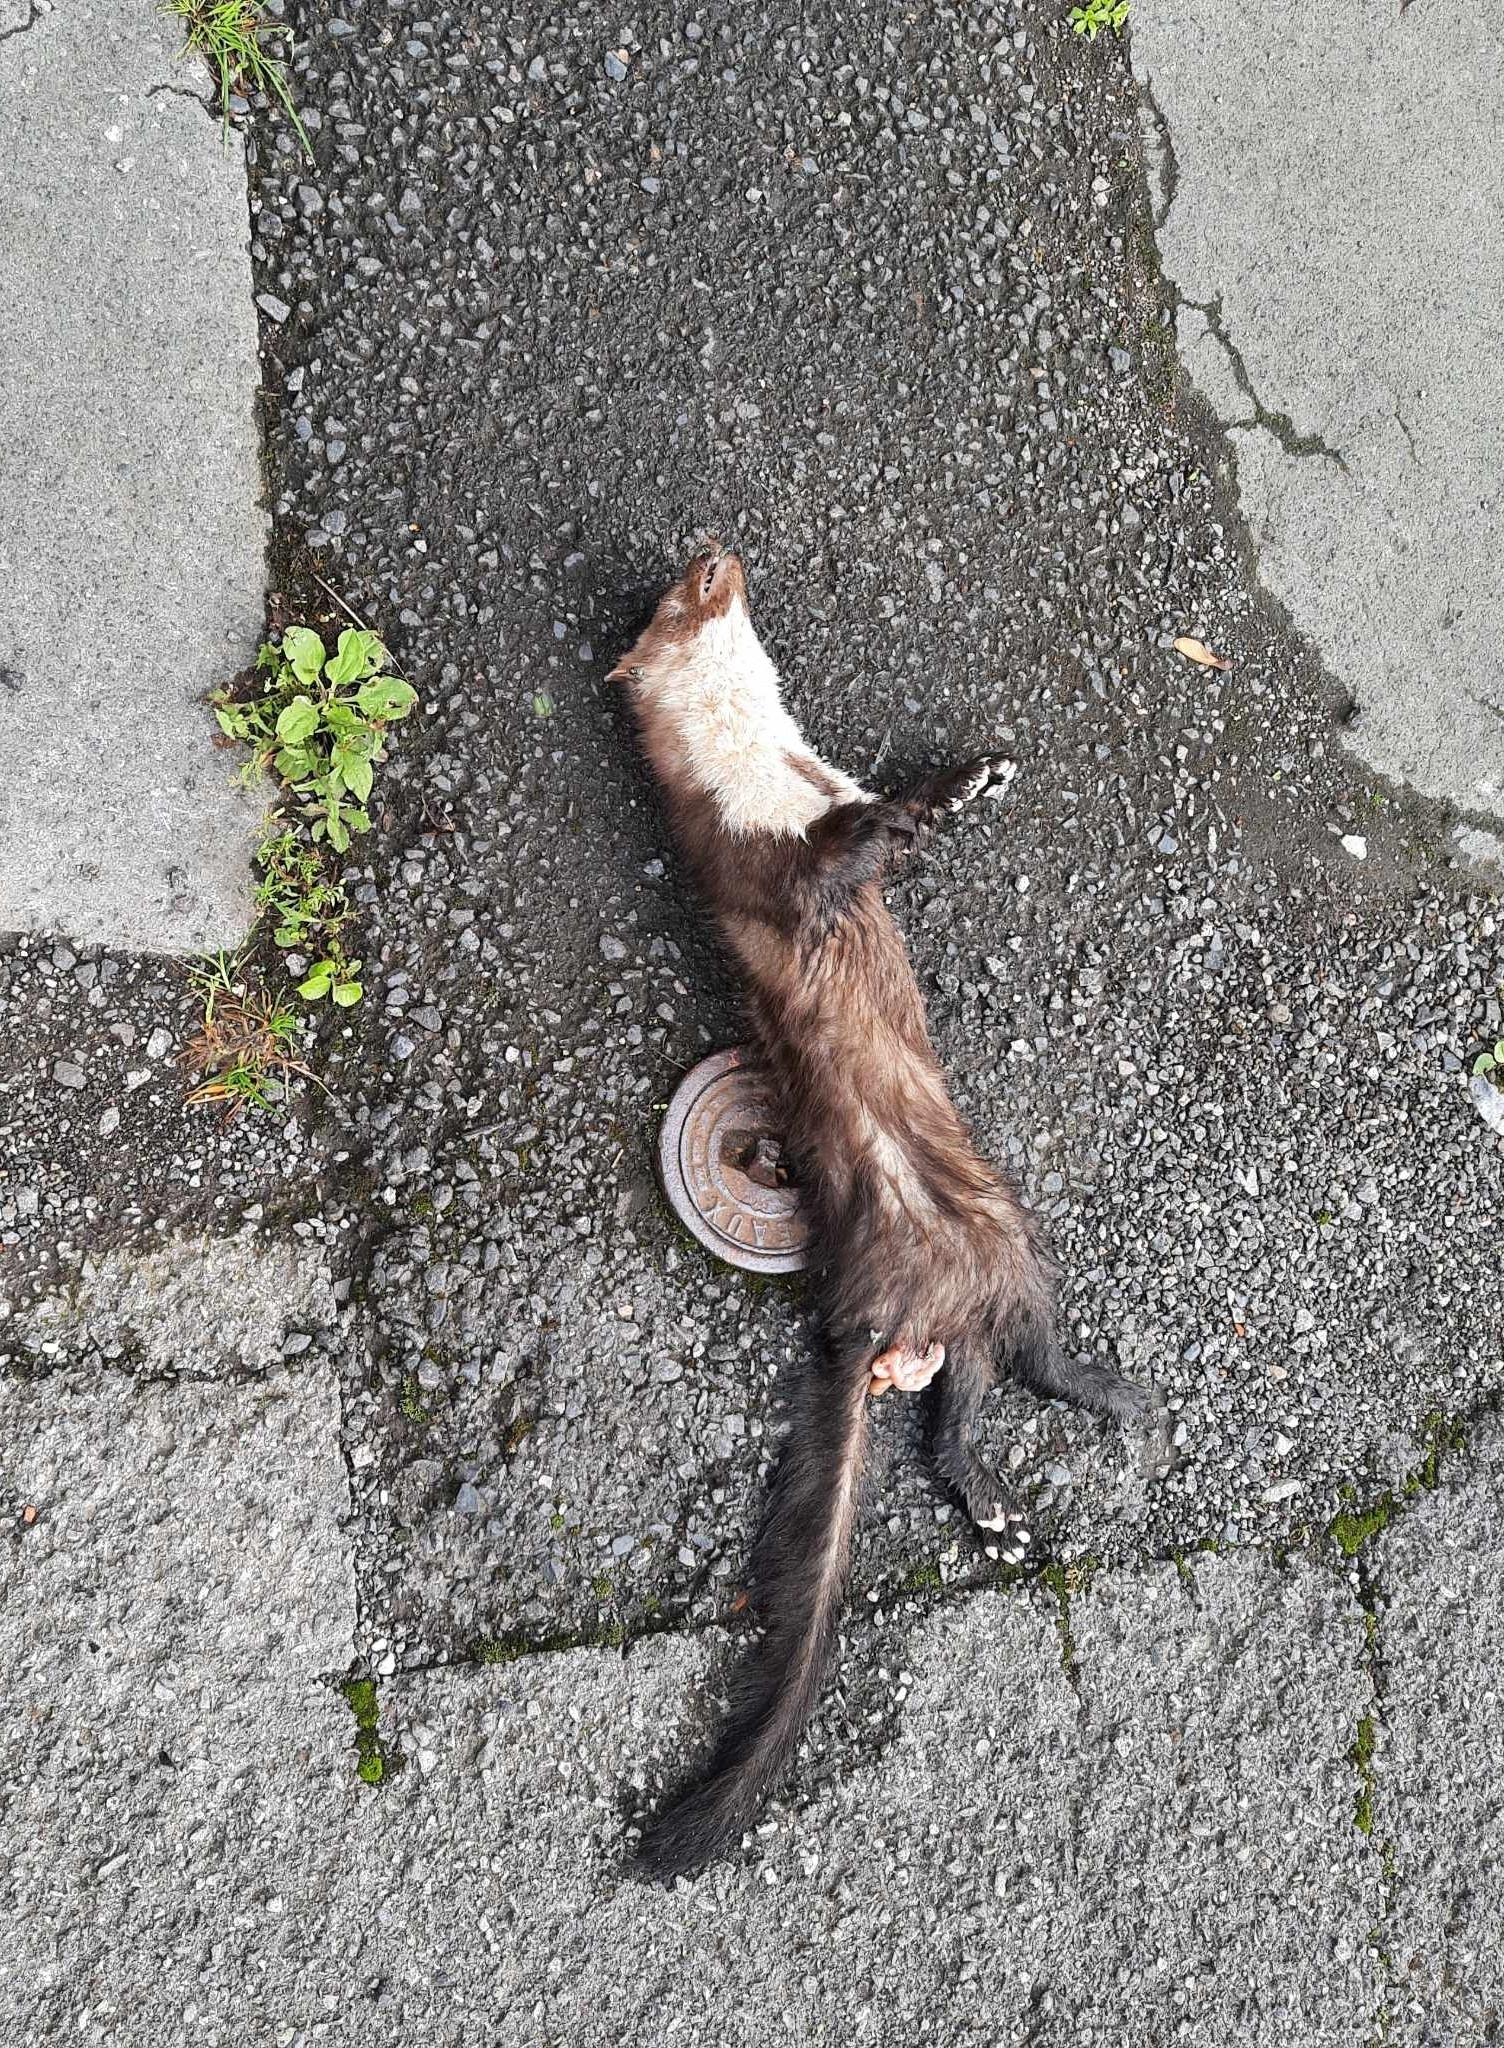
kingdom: Animalia
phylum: Chordata
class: Mammalia
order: Carnivora
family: Mustelidae
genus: Martes
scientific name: Martes foina
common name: Beech marten
